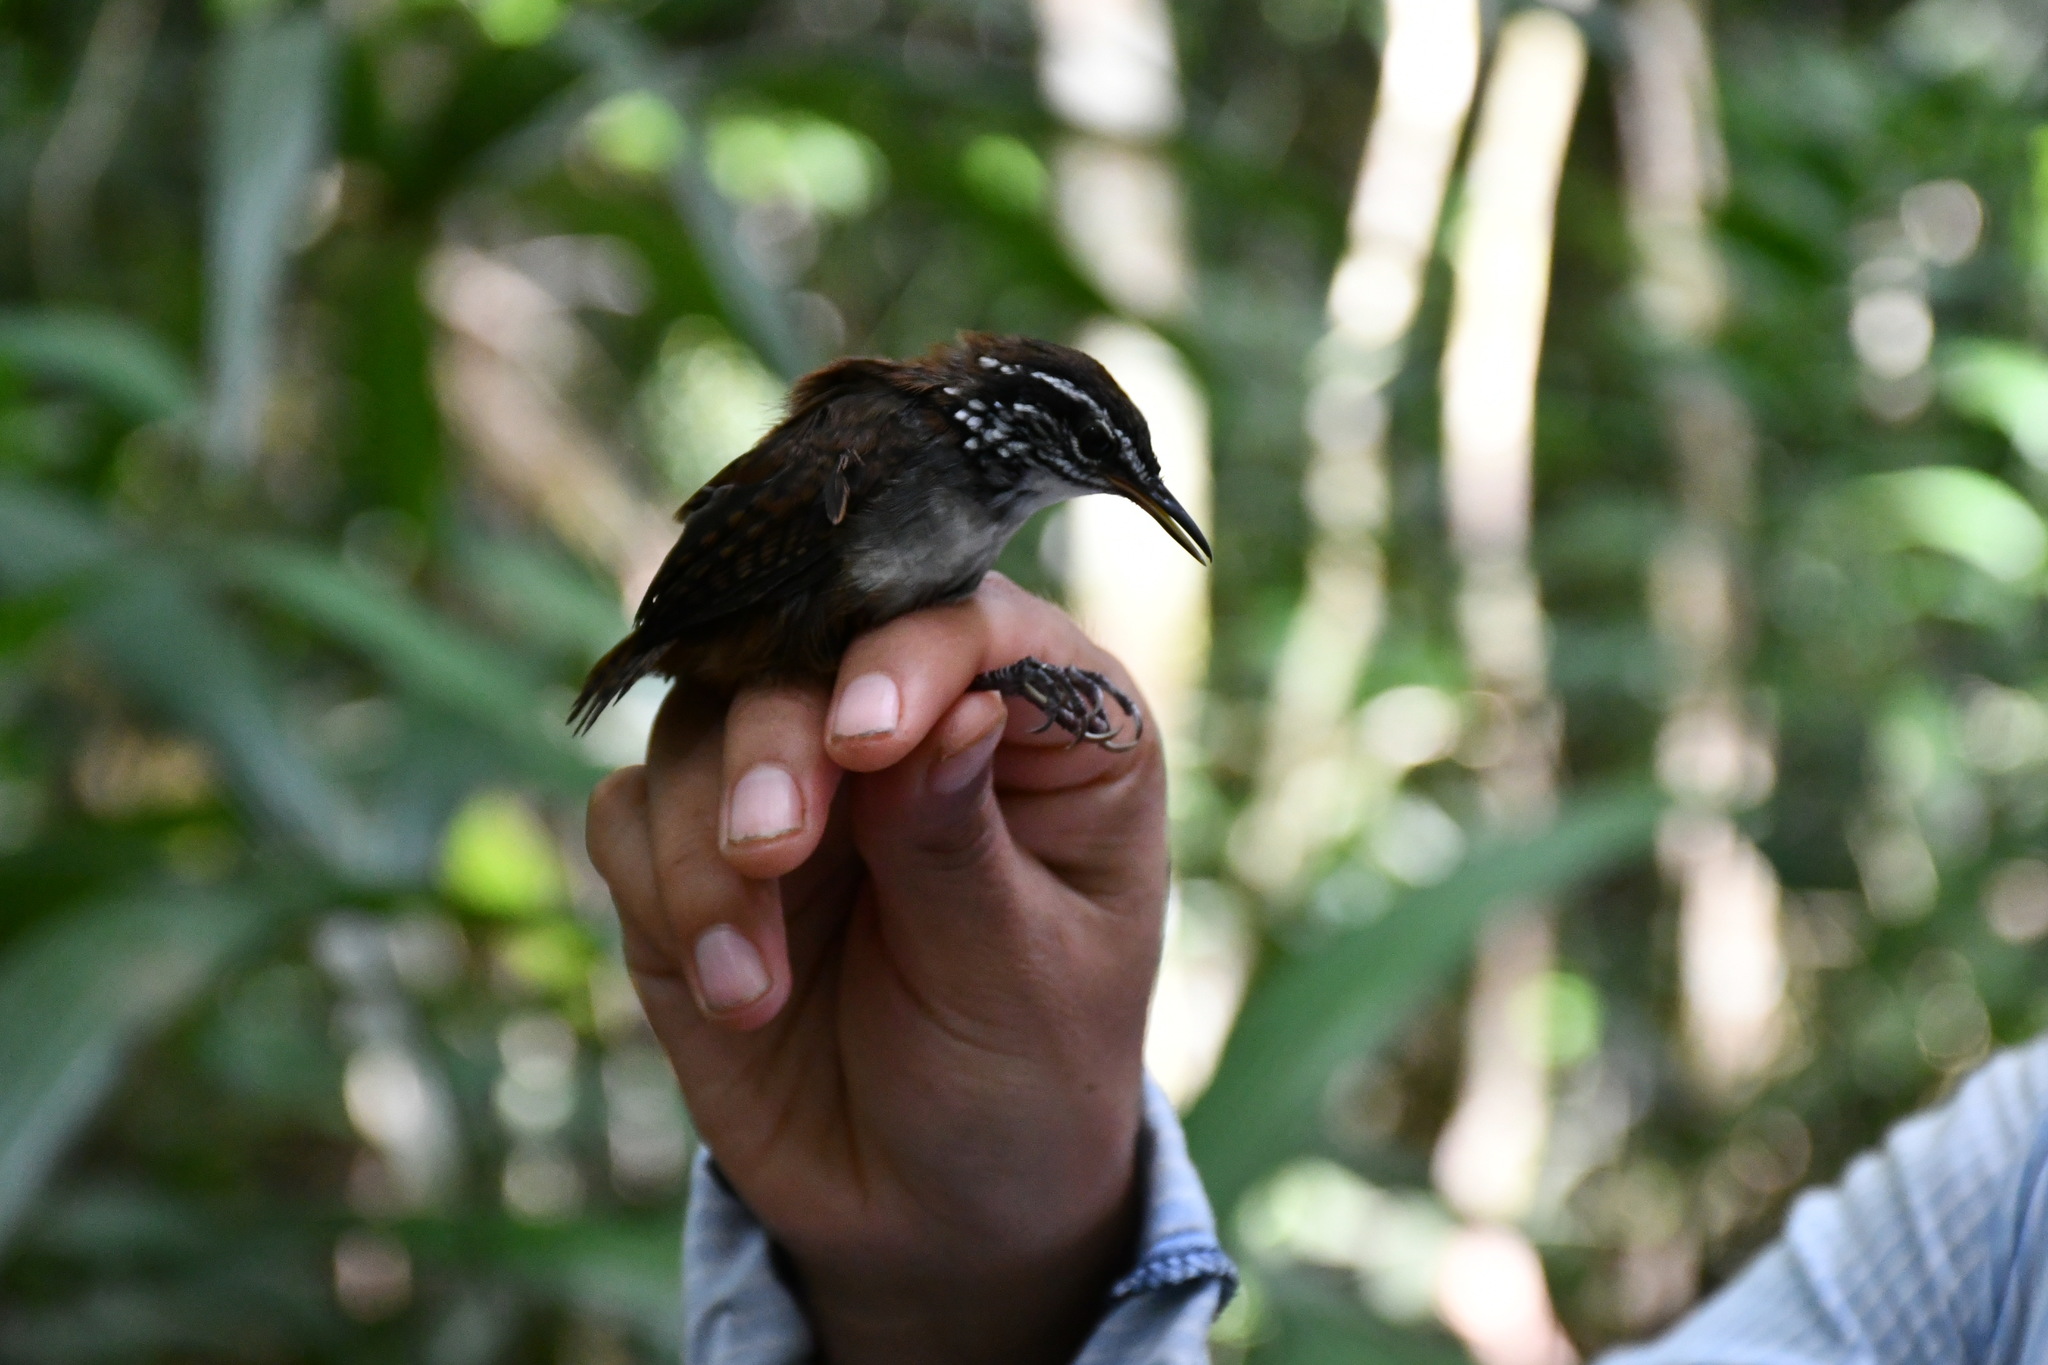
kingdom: Animalia
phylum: Chordata
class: Aves
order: Passeriformes
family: Troglodytidae
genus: Henicorhina
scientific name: Henicorhina leucosticta
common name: White-breasted wood-wren
